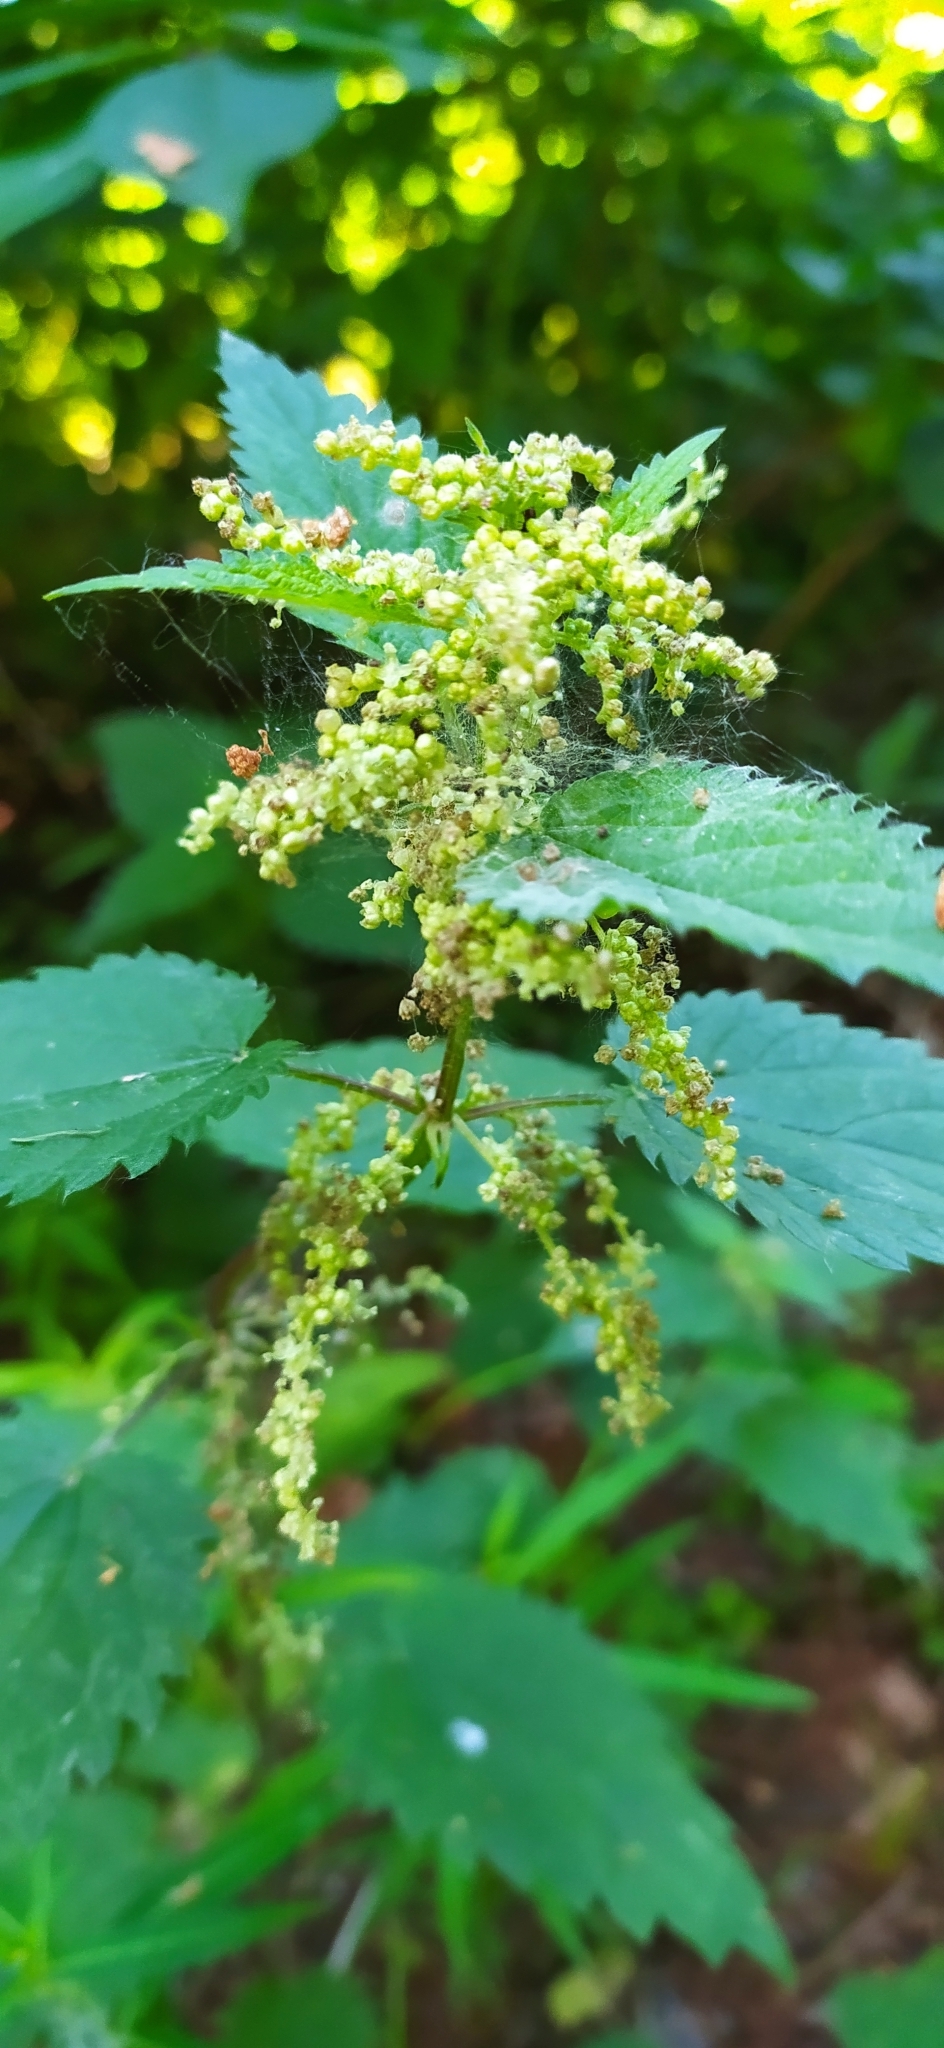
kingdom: Plantae
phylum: Tracheophyta
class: Magnoliopsida
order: Rosales
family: Urticaceae
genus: Urtica
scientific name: Urtica dioica
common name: Common nettle
